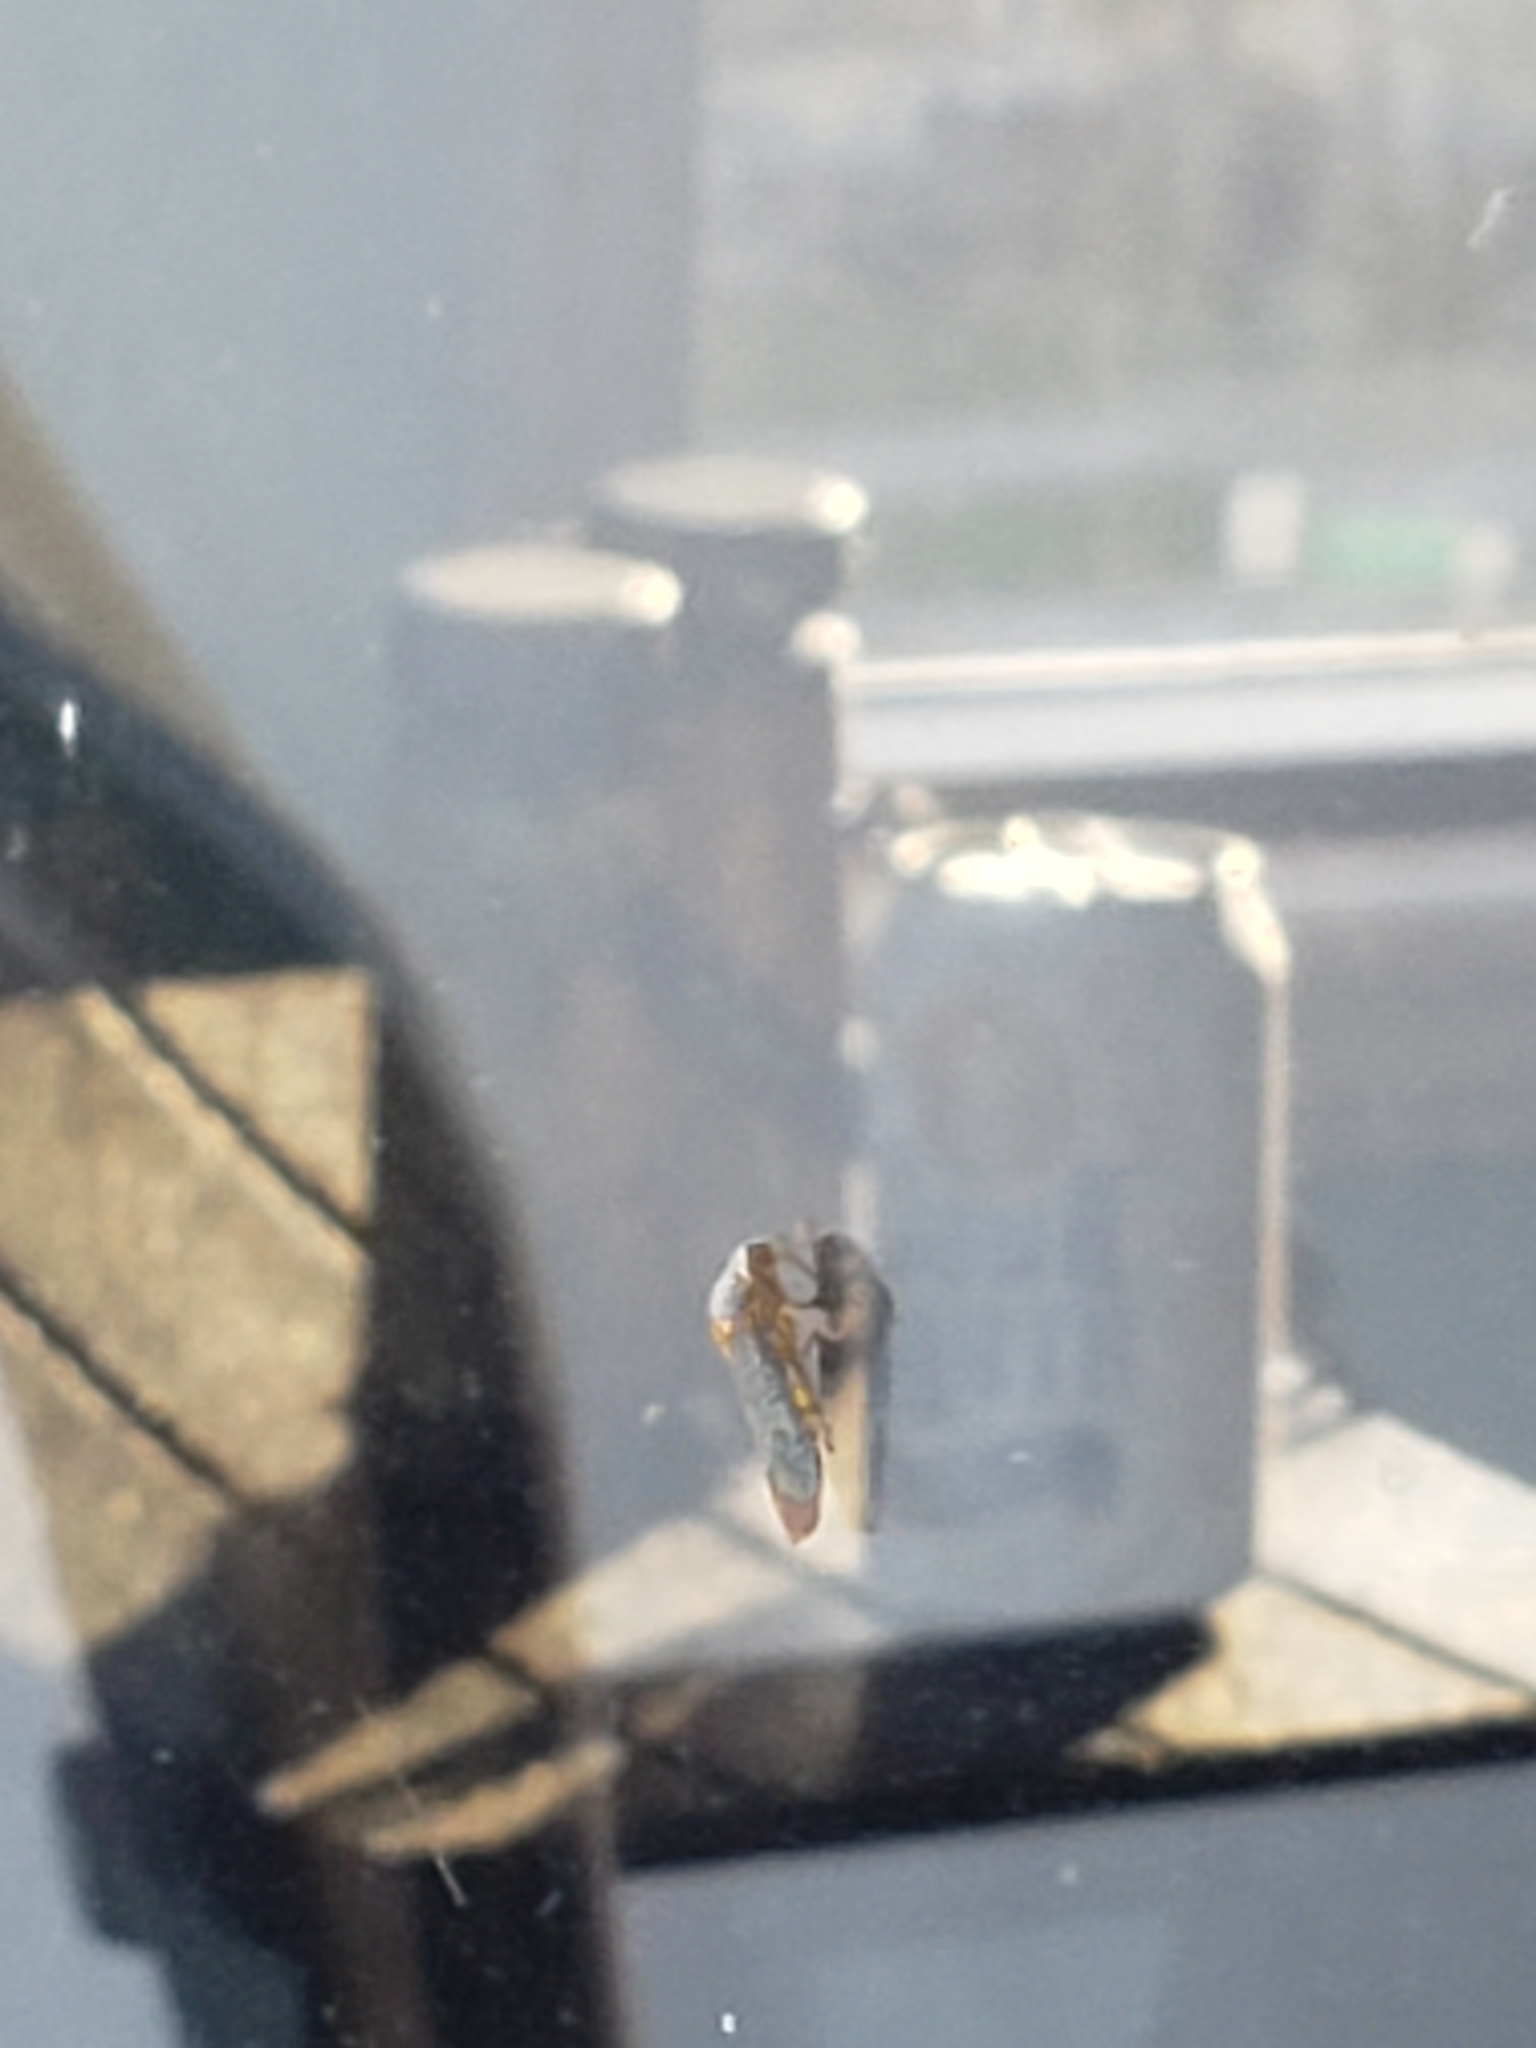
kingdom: Animalia
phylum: Arthropoda
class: Insecta
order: Hemiptera
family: Cicadellidae
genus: Oncometopia
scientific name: Oncometopia orbona
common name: Broad-headed sharpshooter
